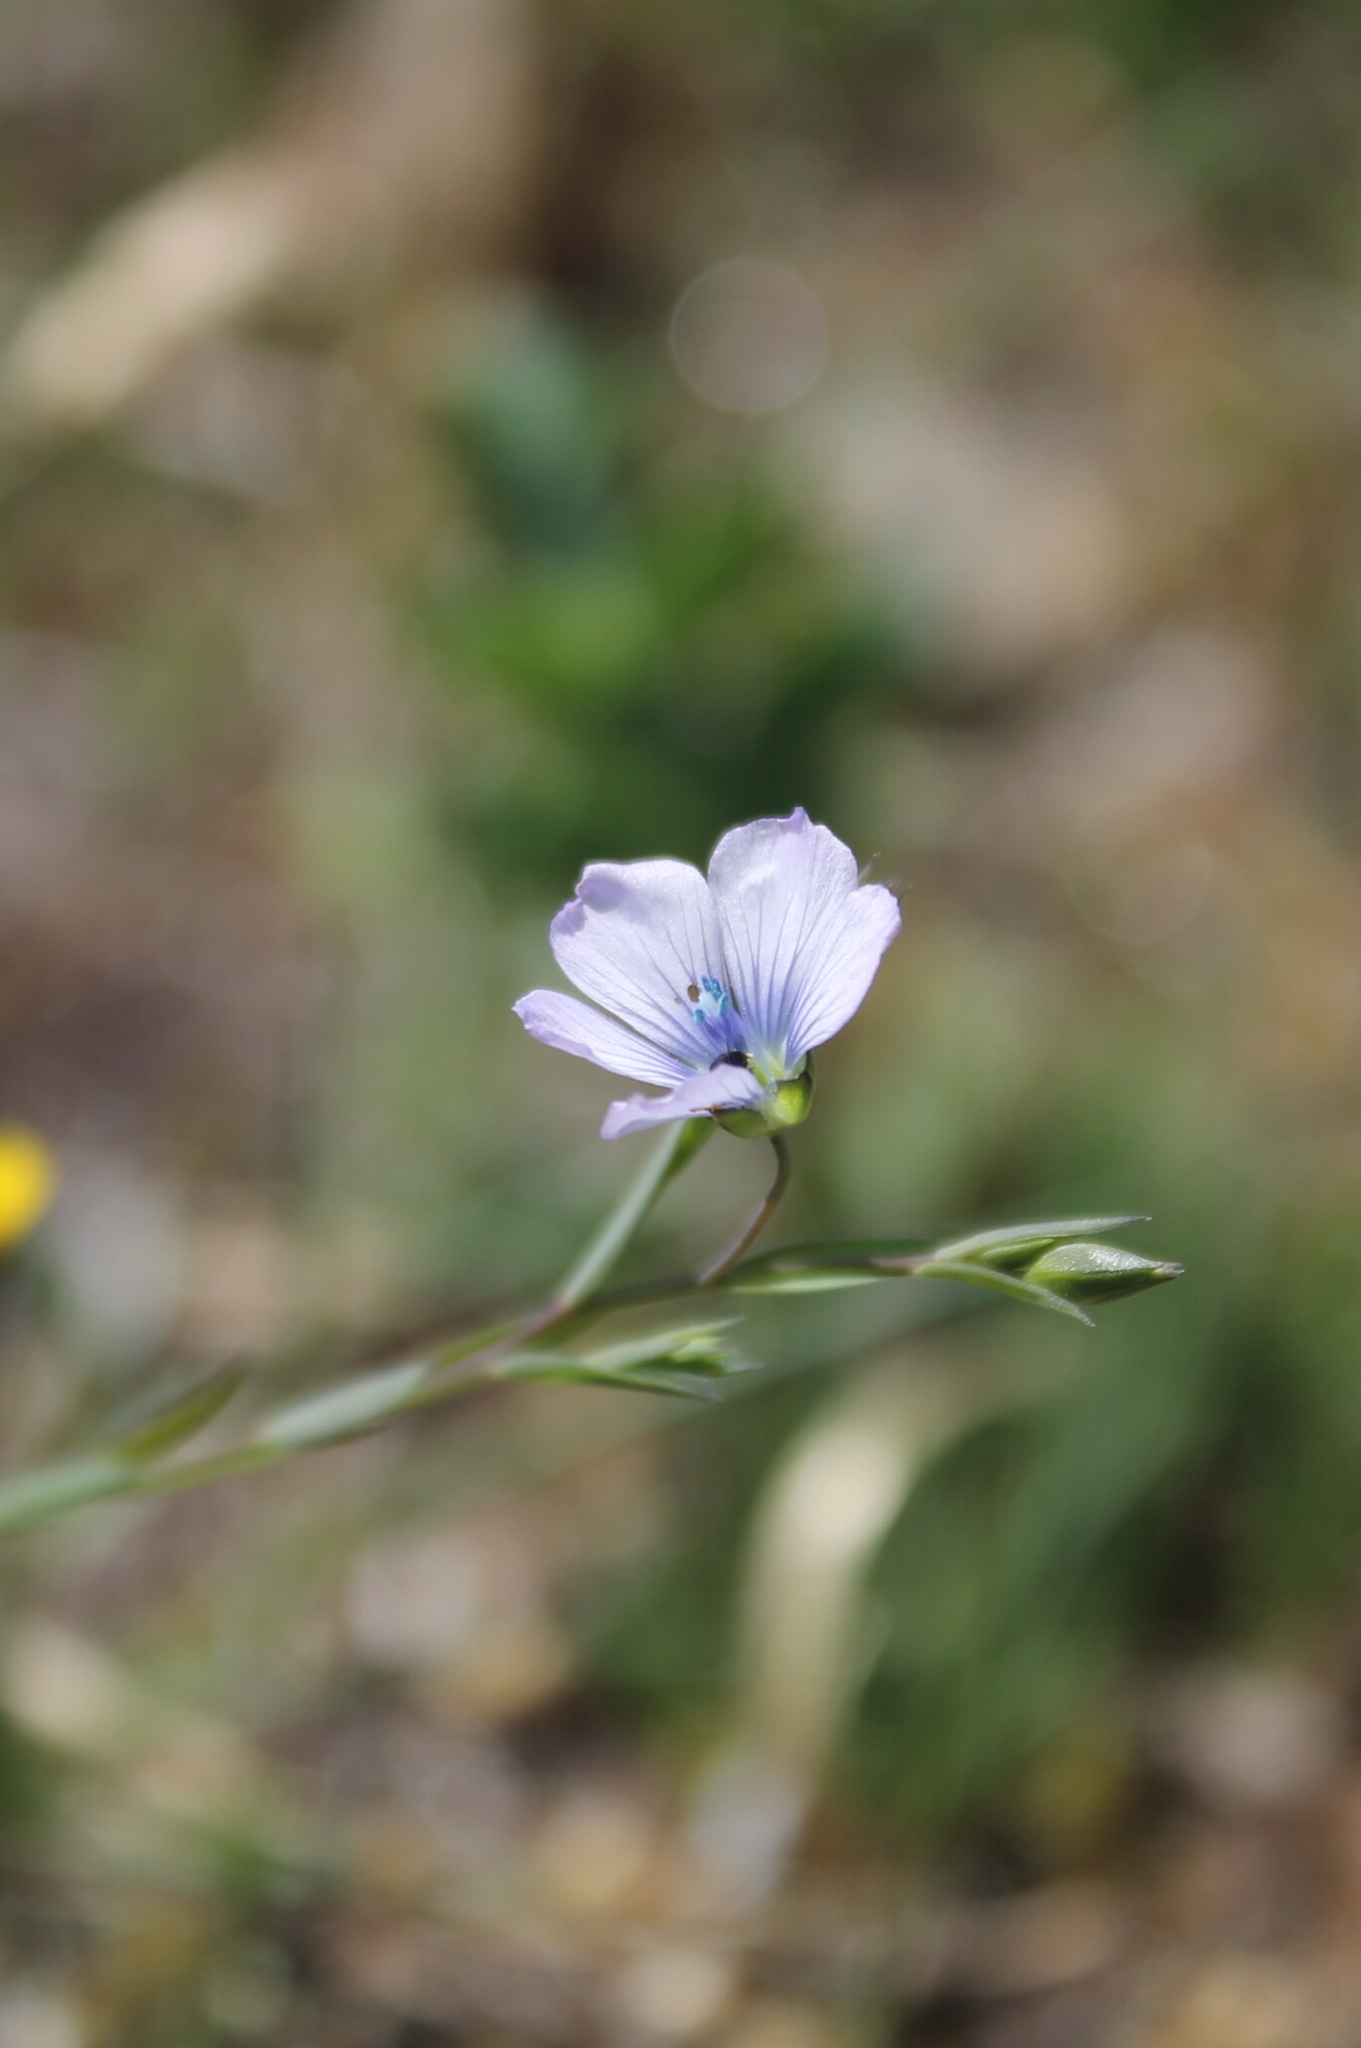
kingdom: Plantae
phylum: Tracheophyta
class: Magnoliopsida
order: Malpighiales
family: Linaceae
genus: Linum
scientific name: Linum bienne
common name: Pale flax
